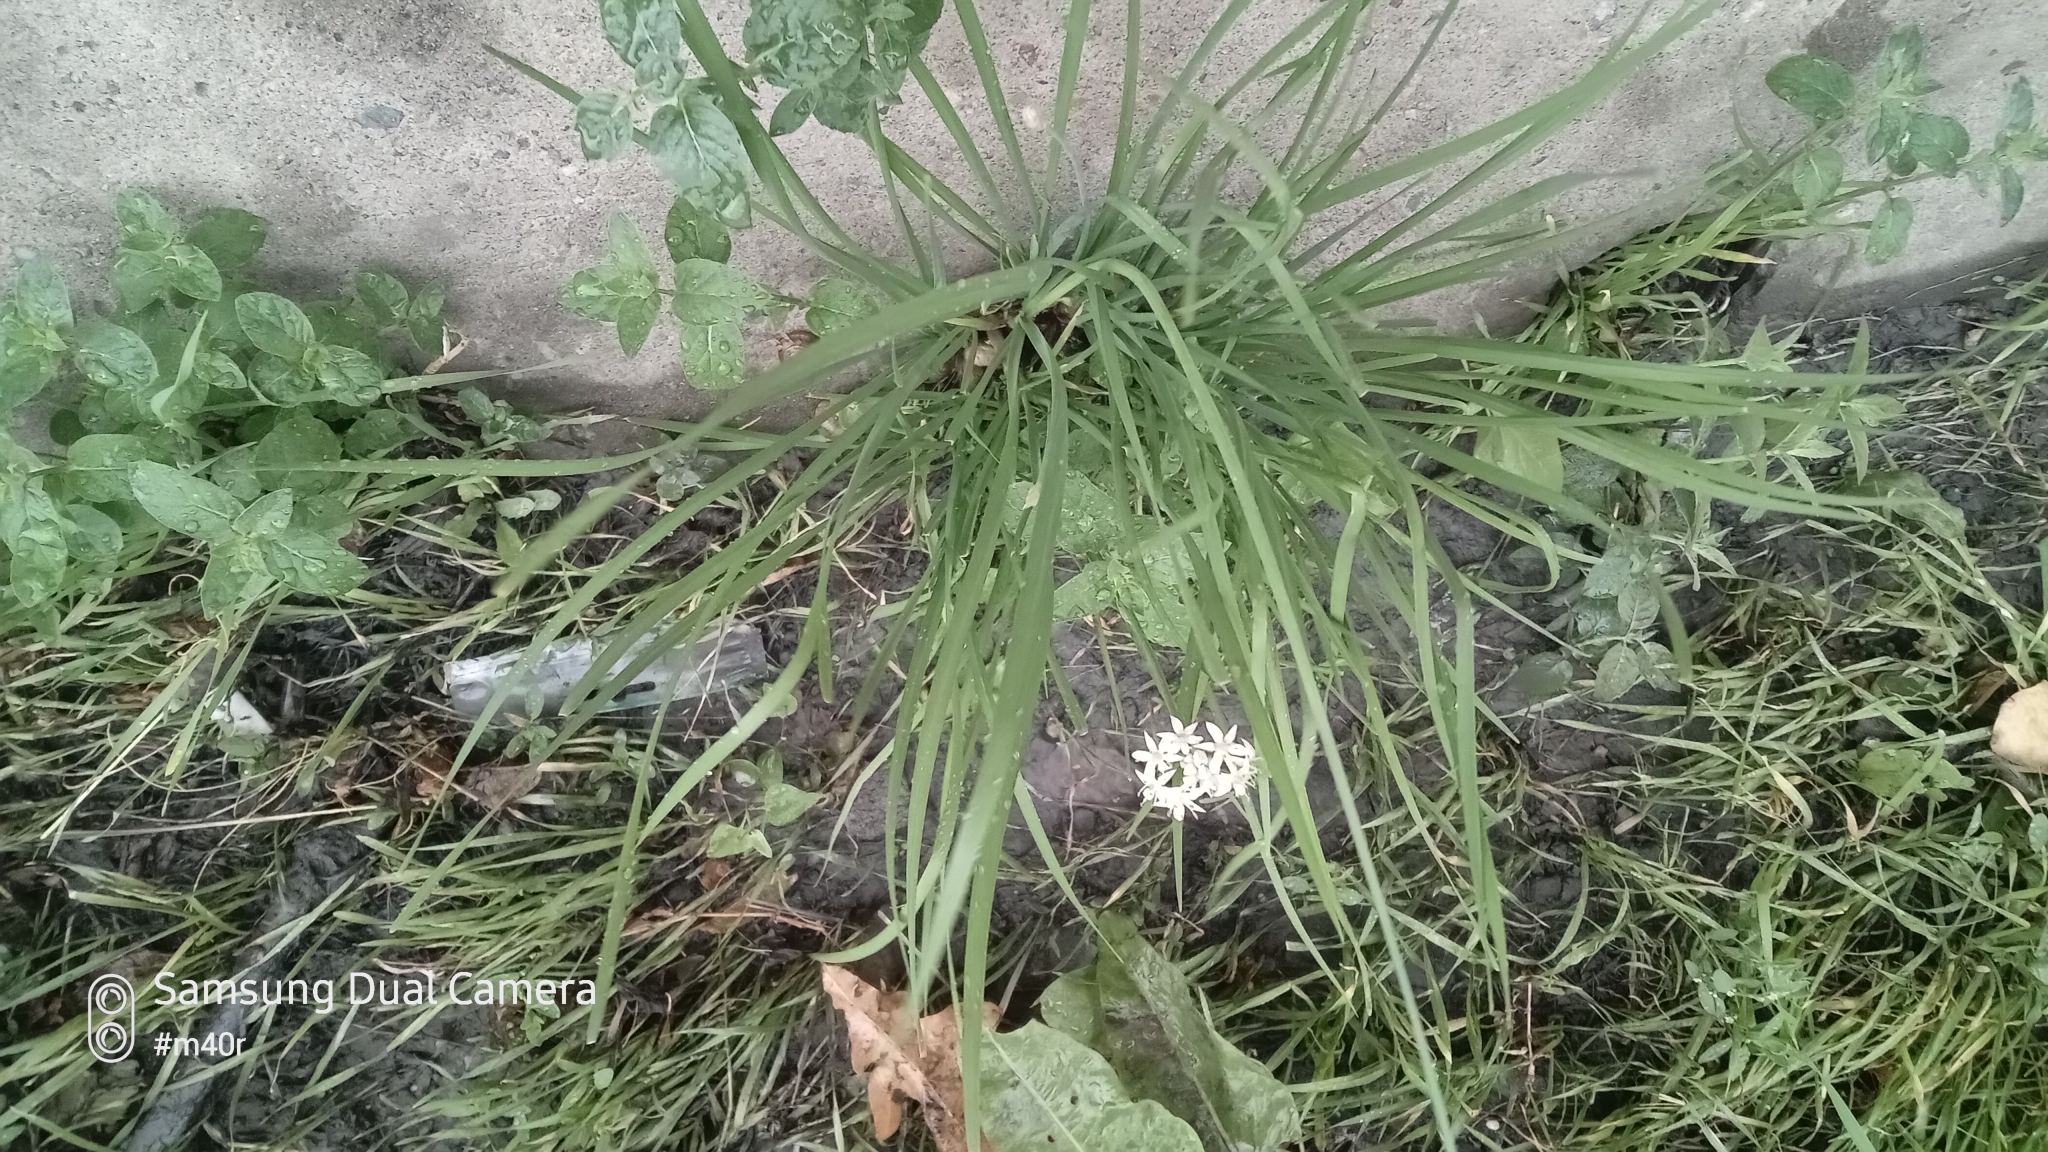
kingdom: Plantae
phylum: Tracheophyta
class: Liliopsida
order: Asparagales
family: Amaryllidaceae
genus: Allium
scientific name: Allium tuberosum
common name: Chinese chives
